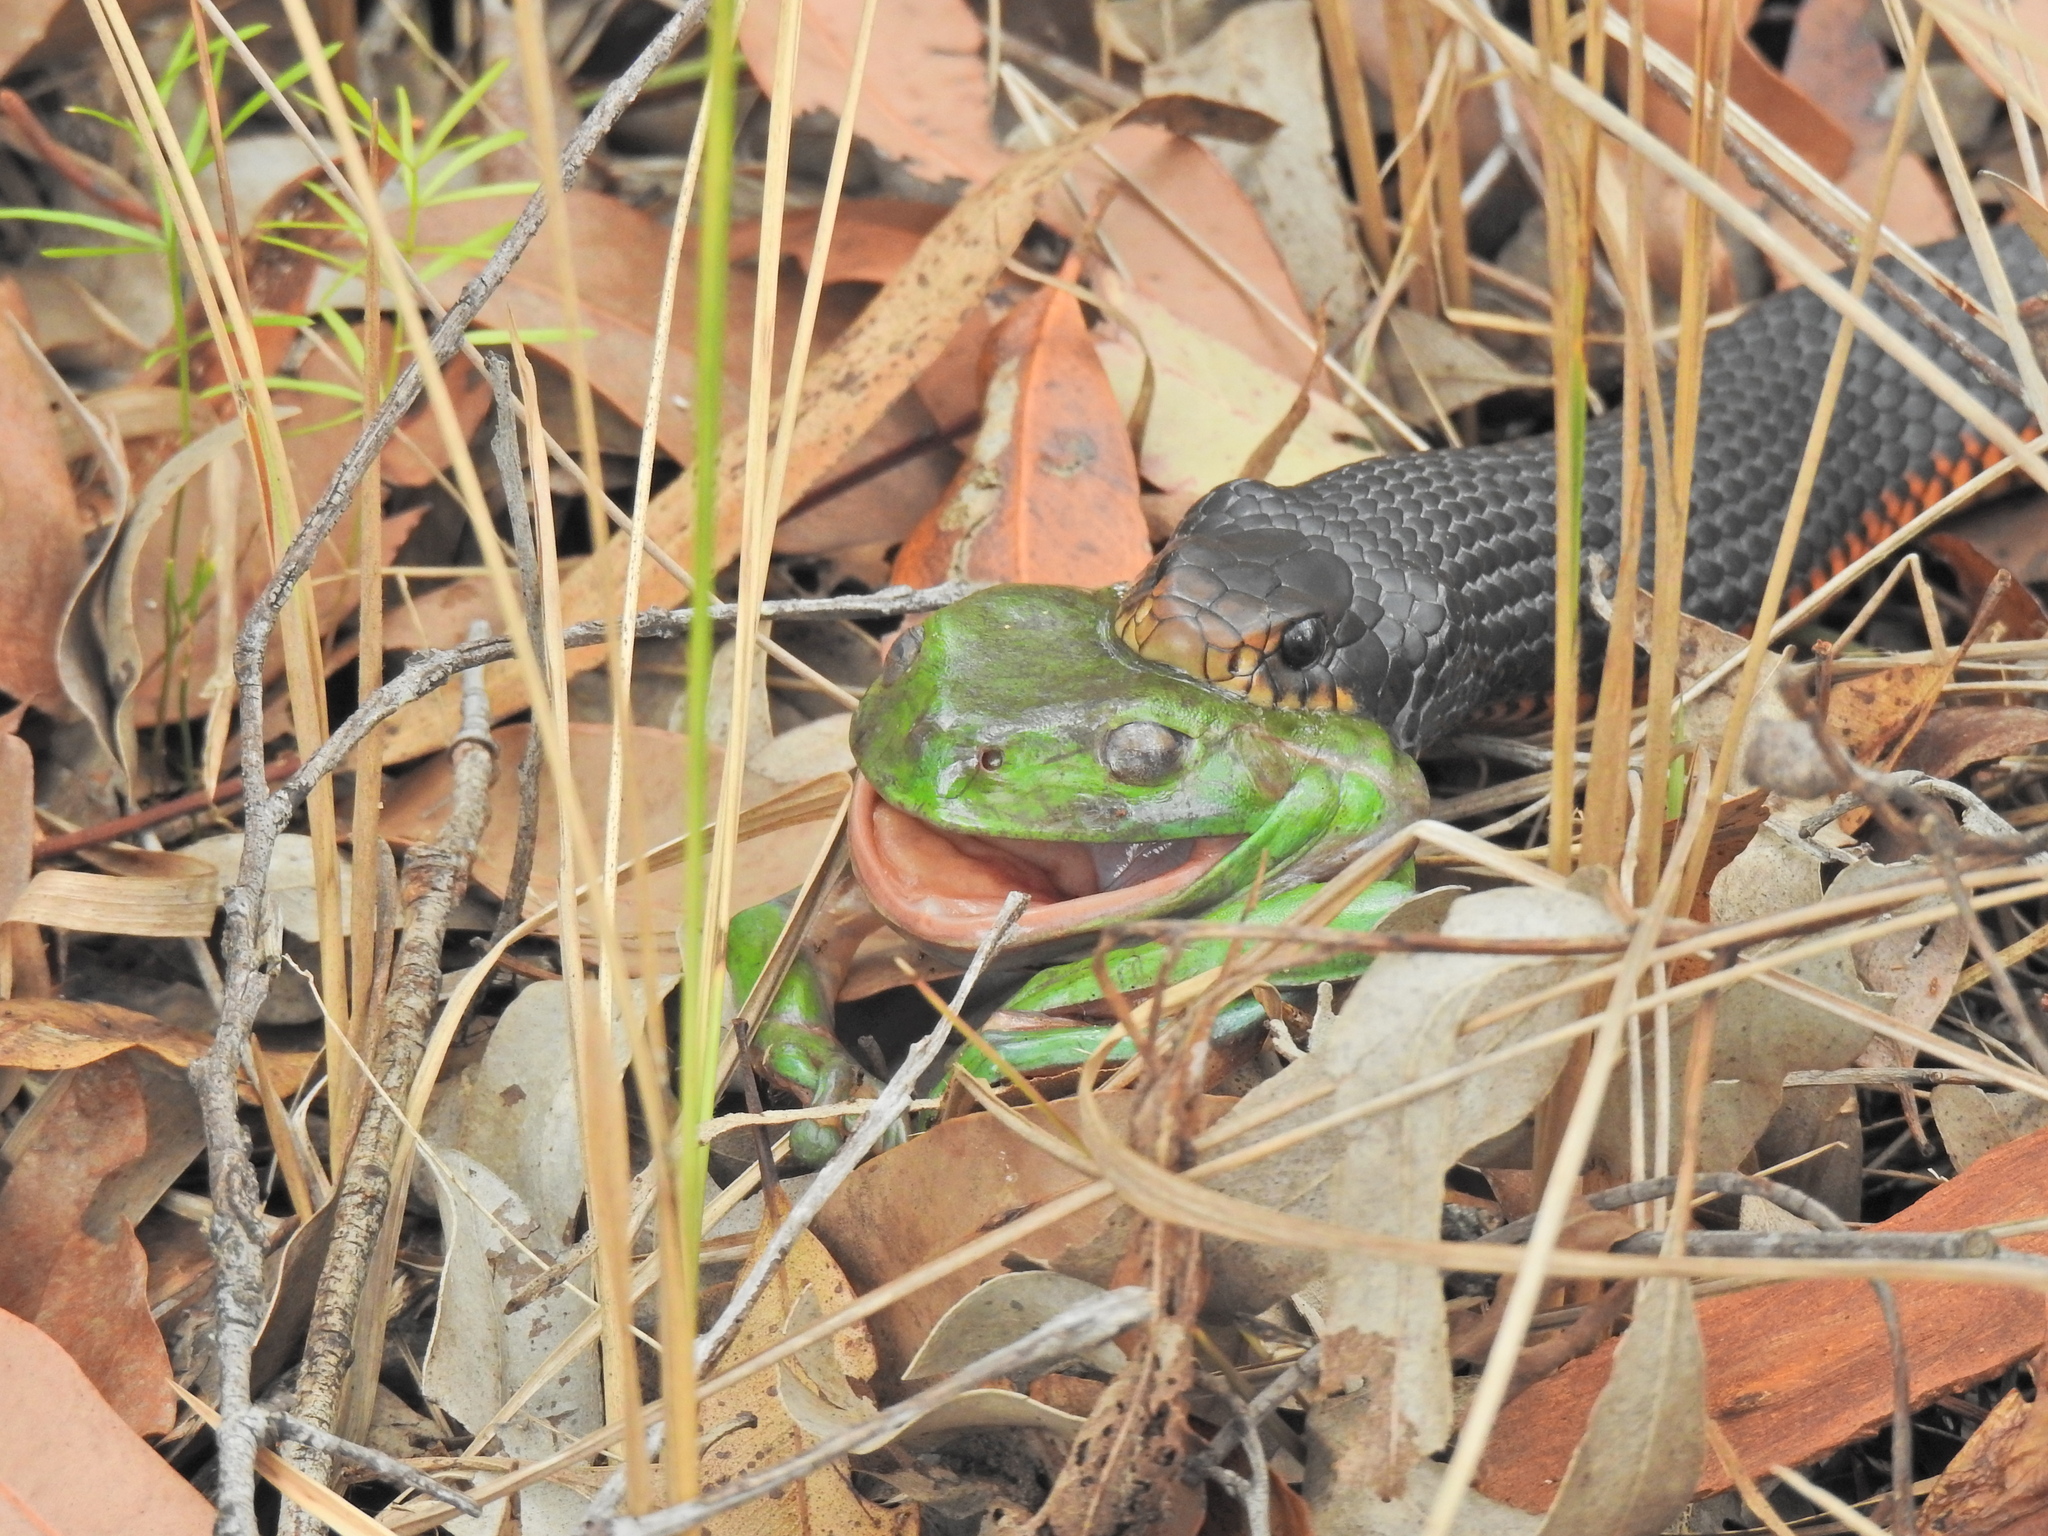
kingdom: Animalia
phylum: Chordata
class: Amphibia
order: Anura
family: Pelodryadidae
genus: Ranoidea
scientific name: Ranoidea caerulea
